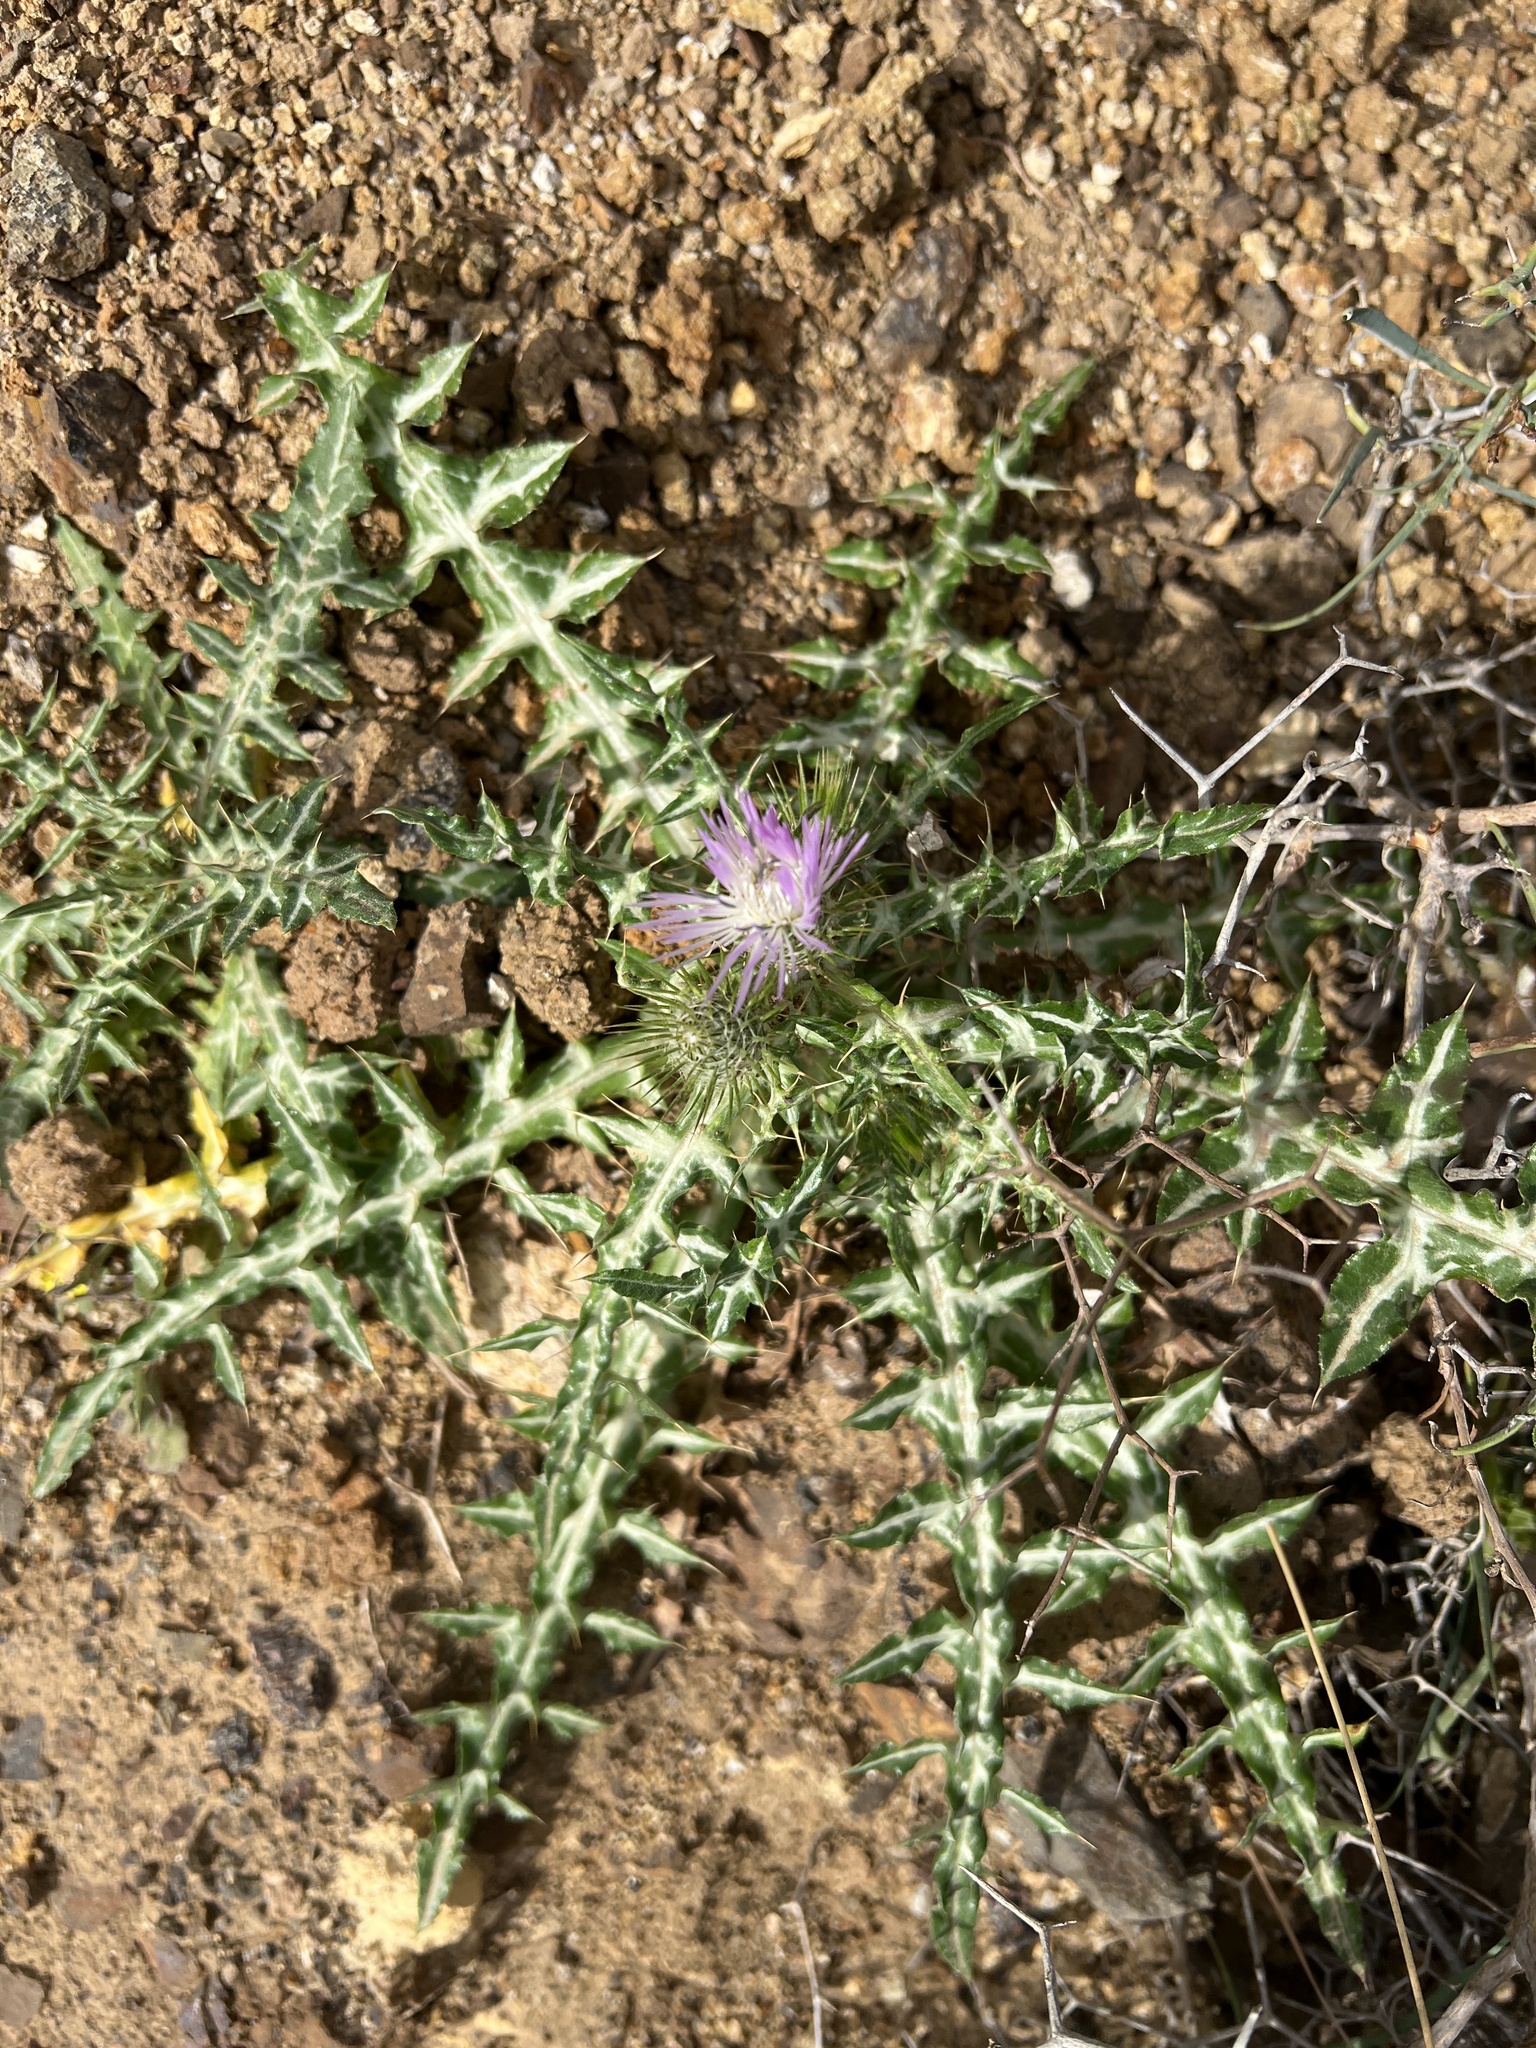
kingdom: Plantae
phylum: Tracheophyta
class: Magnoliopsida
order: Asterales
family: Asteraceae
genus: Galactites
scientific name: Galactites tomentosa
